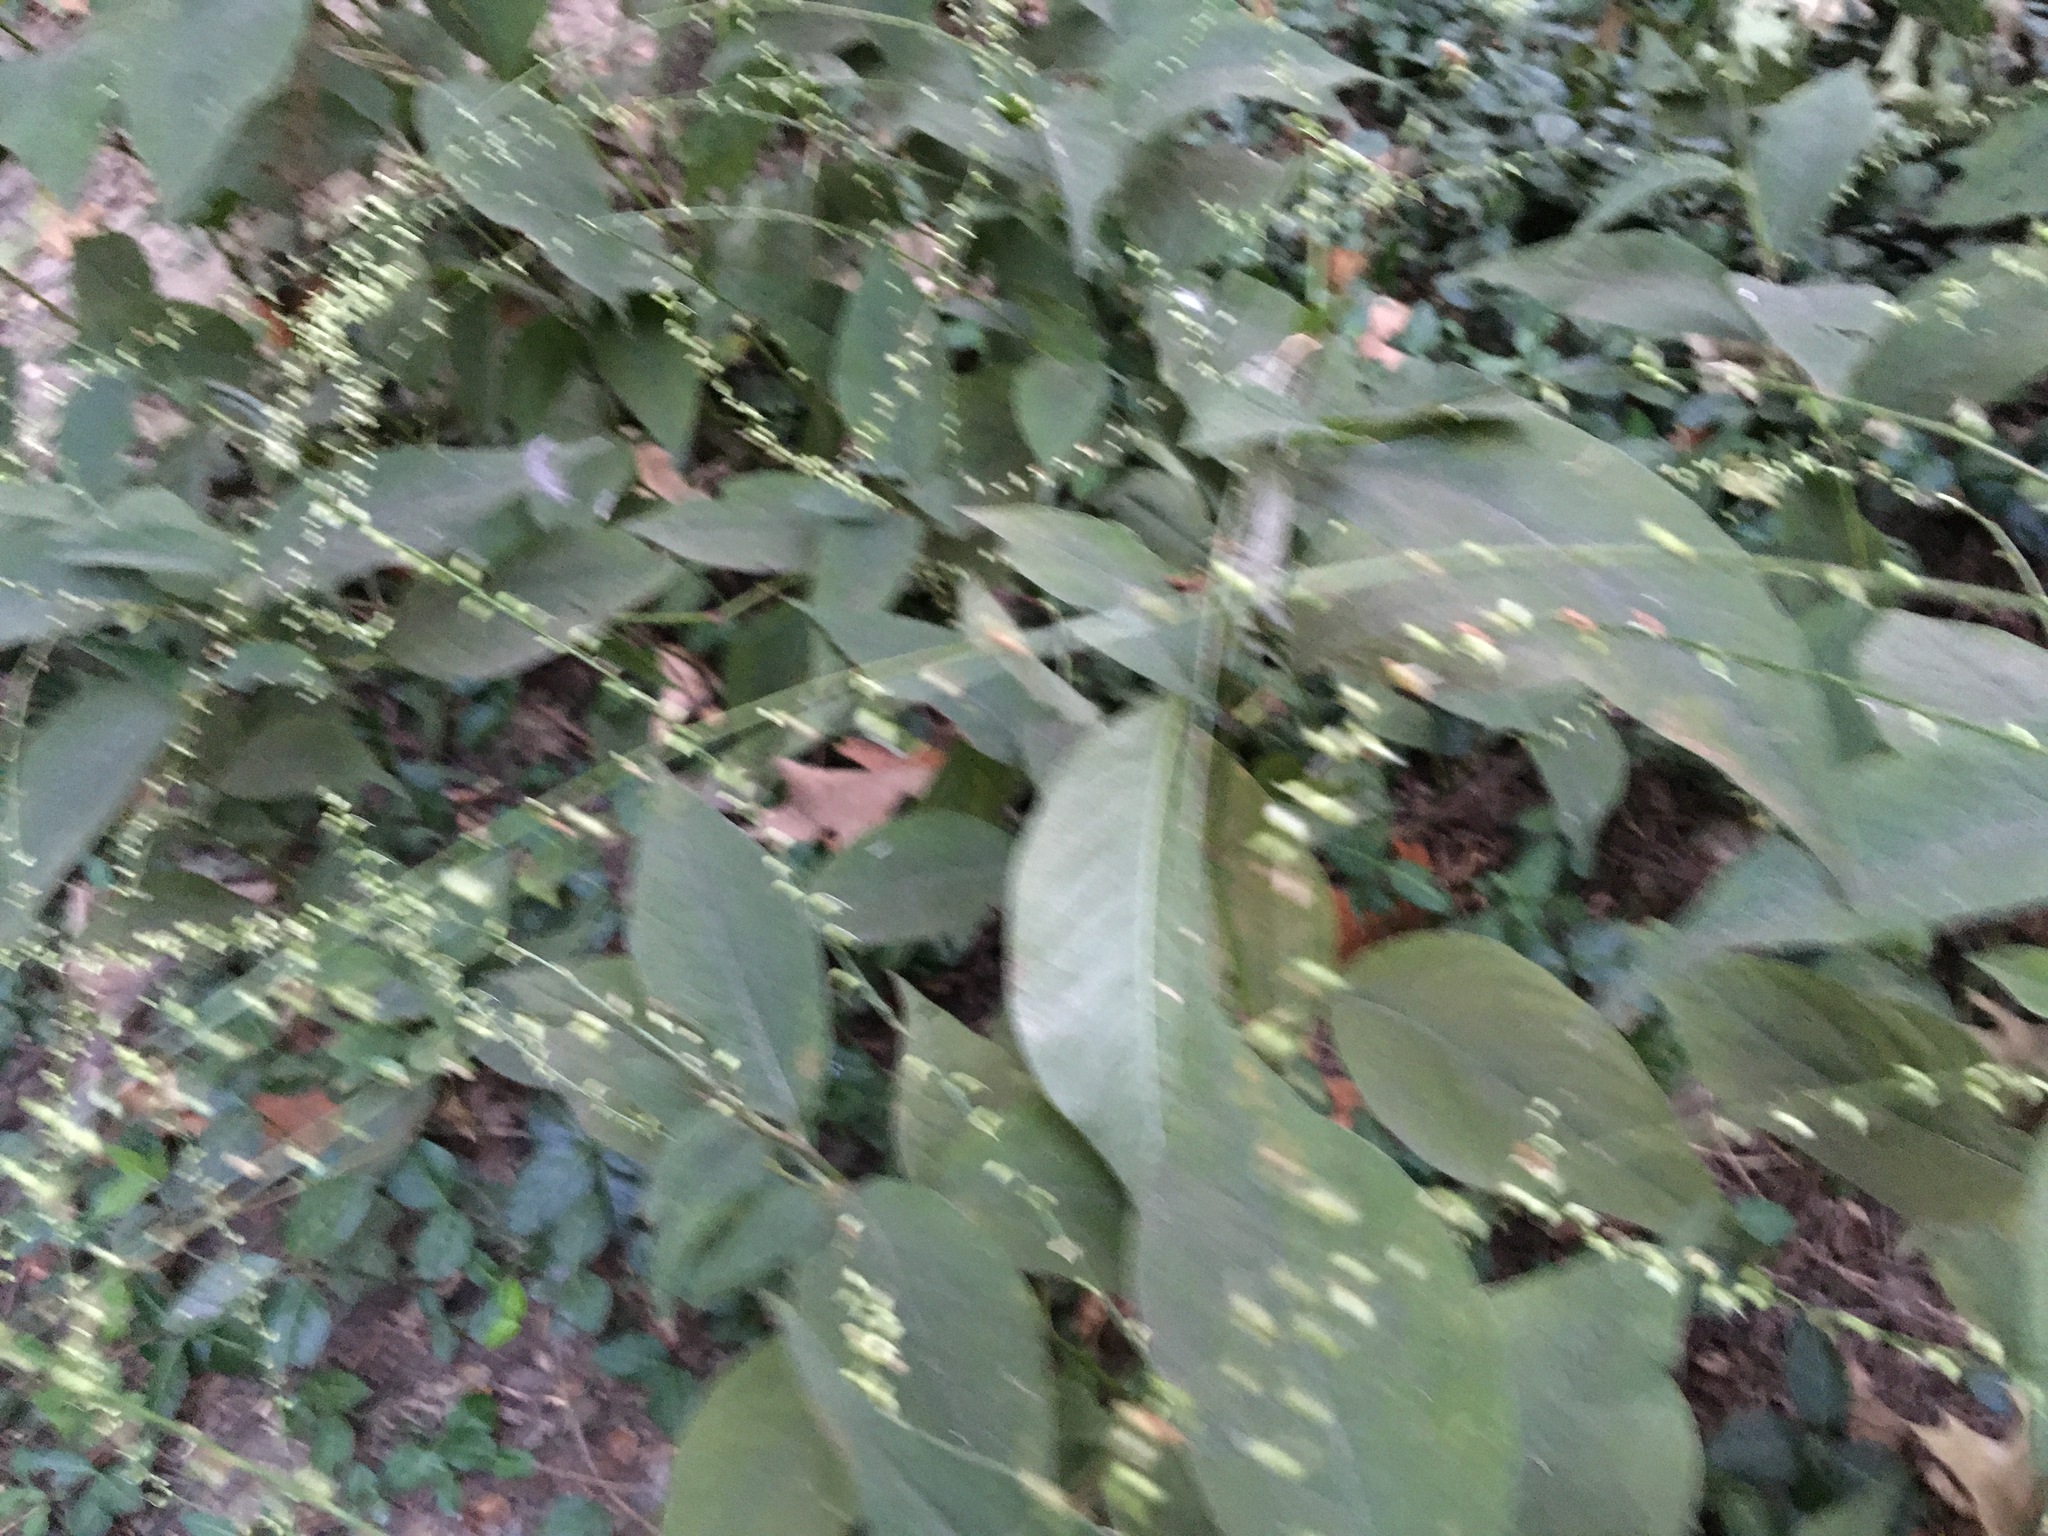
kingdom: Plantae
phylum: Tracheophyta
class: Magnoliopsida
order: Caryophyllales
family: Polygonaceae
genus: Persicaria
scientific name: Persicaria virginiana
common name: Jumpseed
